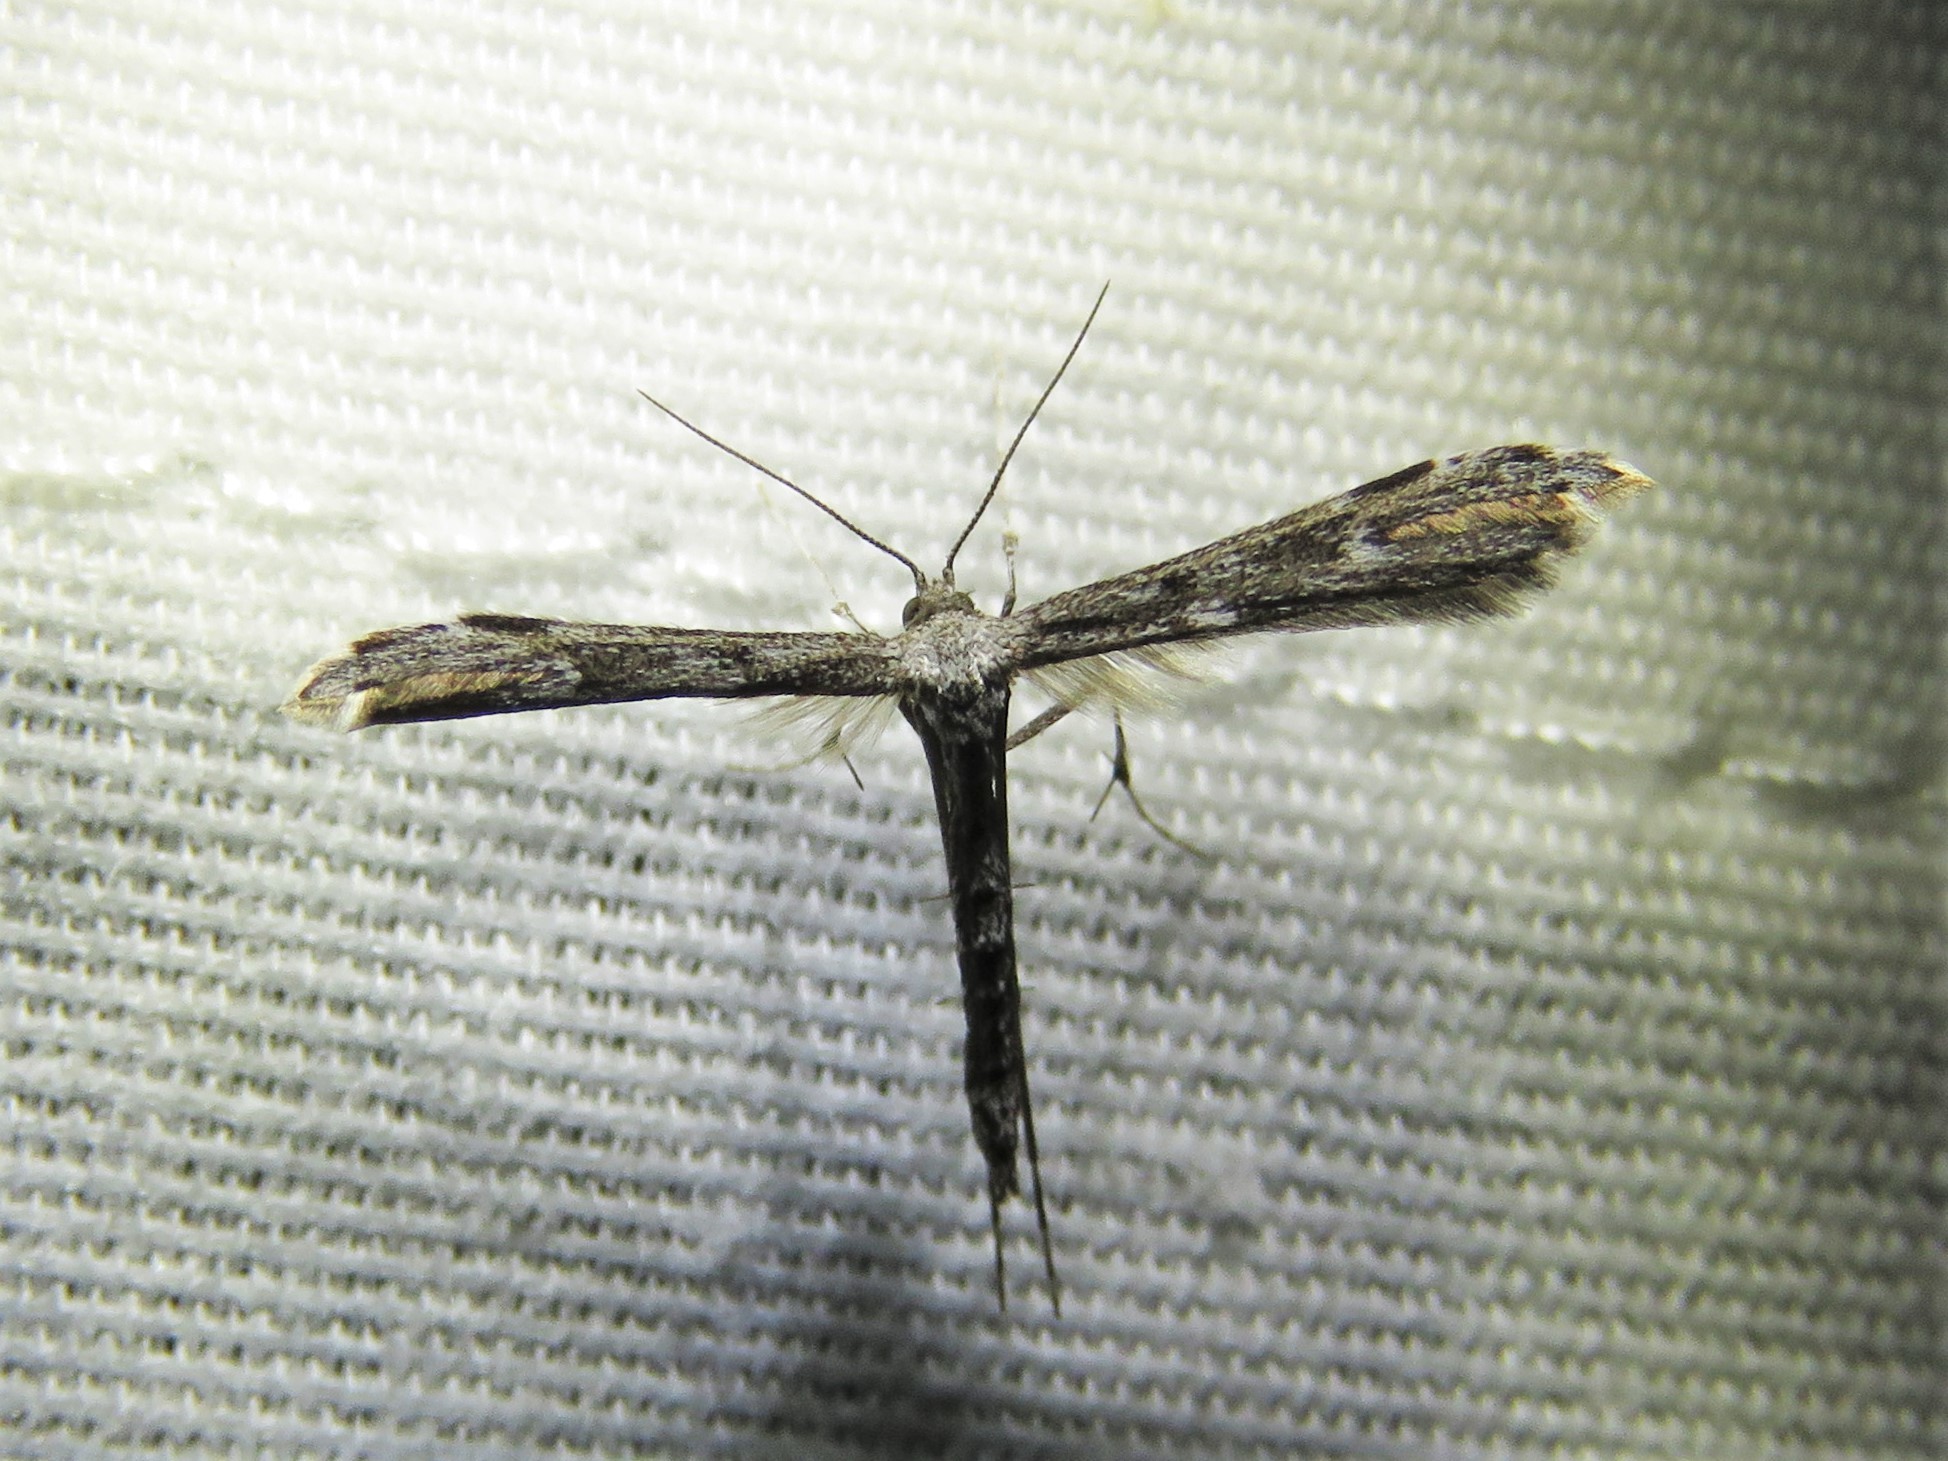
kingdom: Animalia
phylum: Arthropoda
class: Insecta
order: Lepidoptera
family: Pterophoridae
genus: Pselnophorus
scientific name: Pselnophorus belfragei
